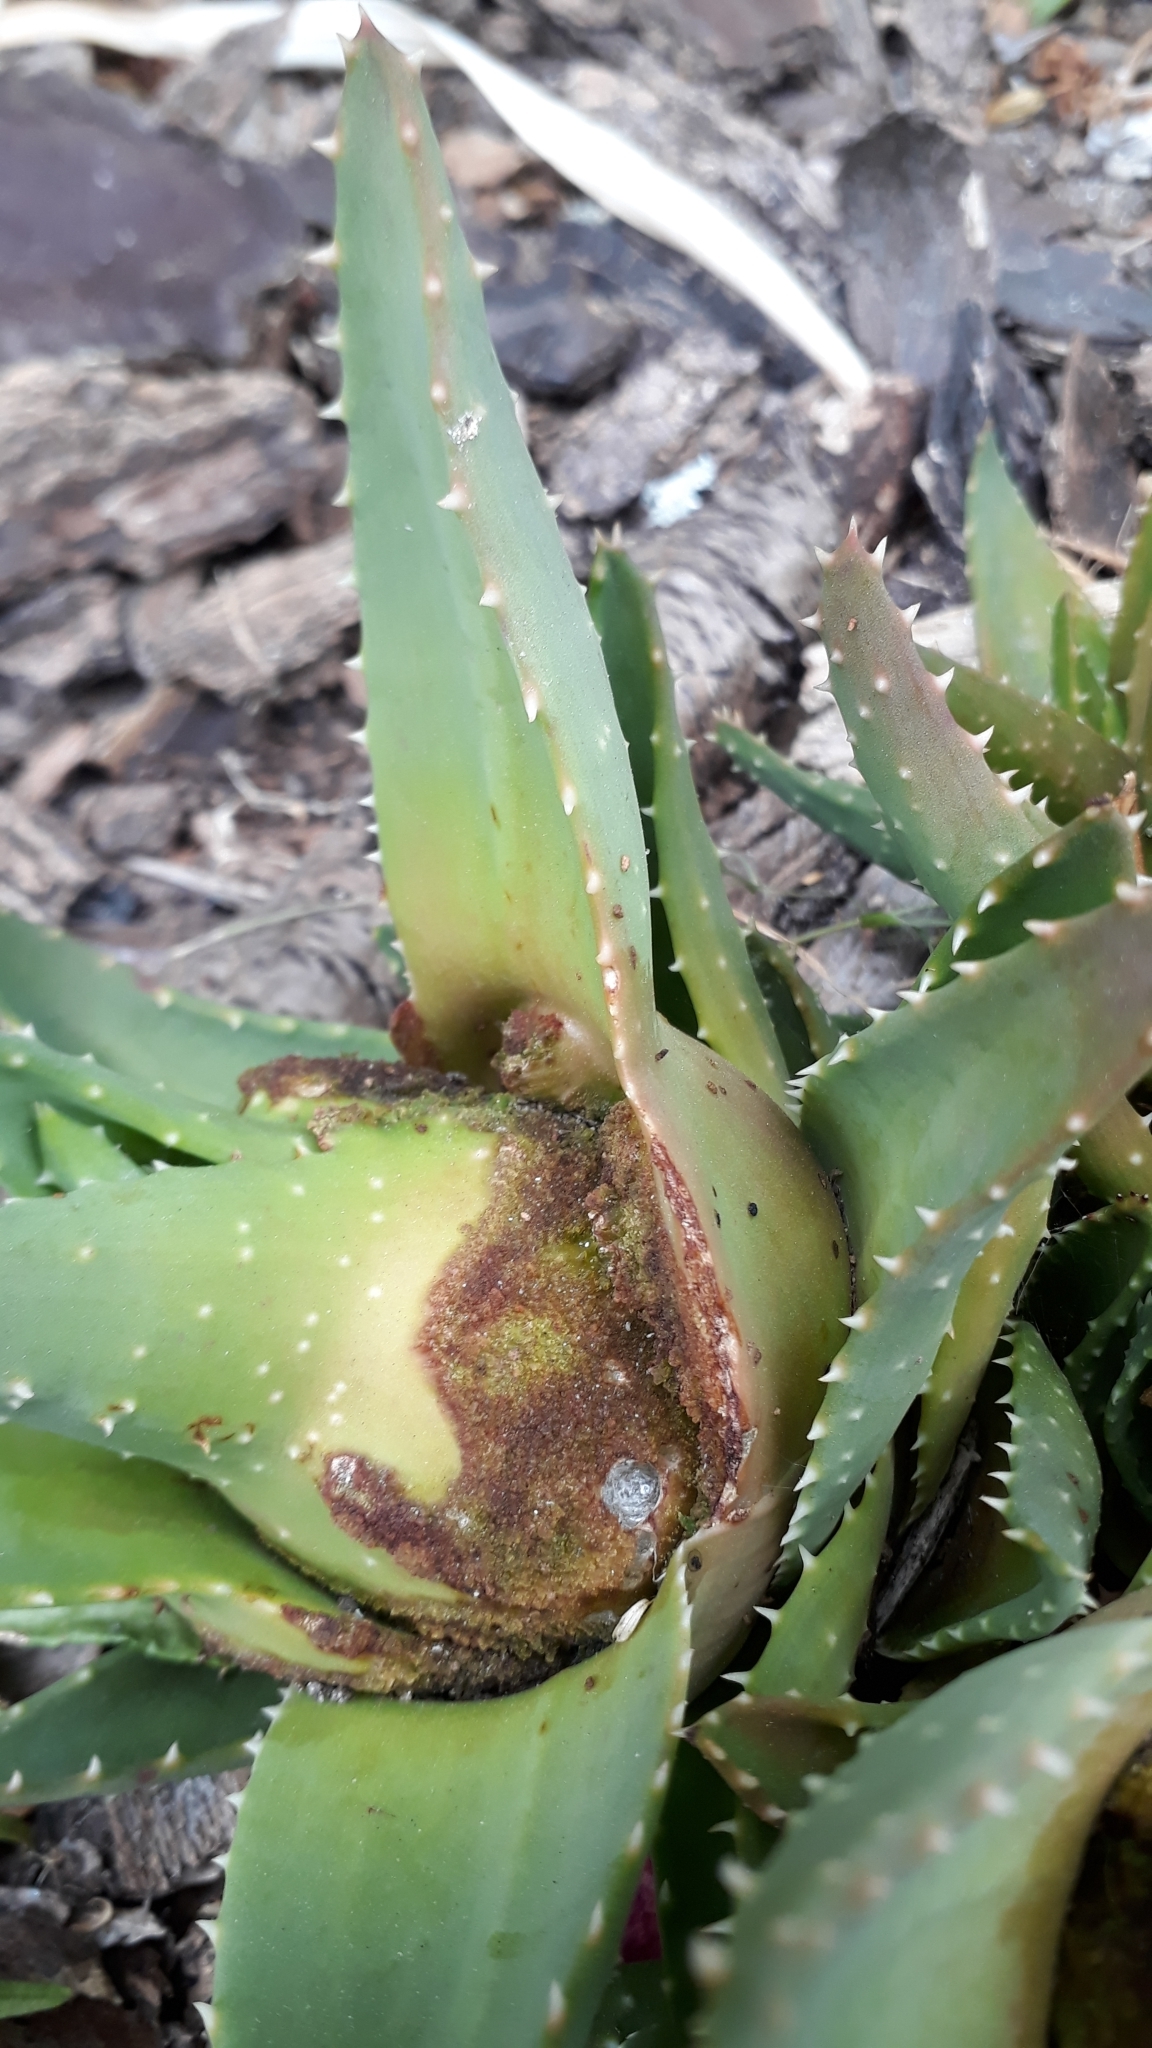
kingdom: Animalia
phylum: Arthropoda
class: Arachnida
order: Trombidiformes
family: Eriophyidae
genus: Aceria
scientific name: Aceria aloinis
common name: Mite
